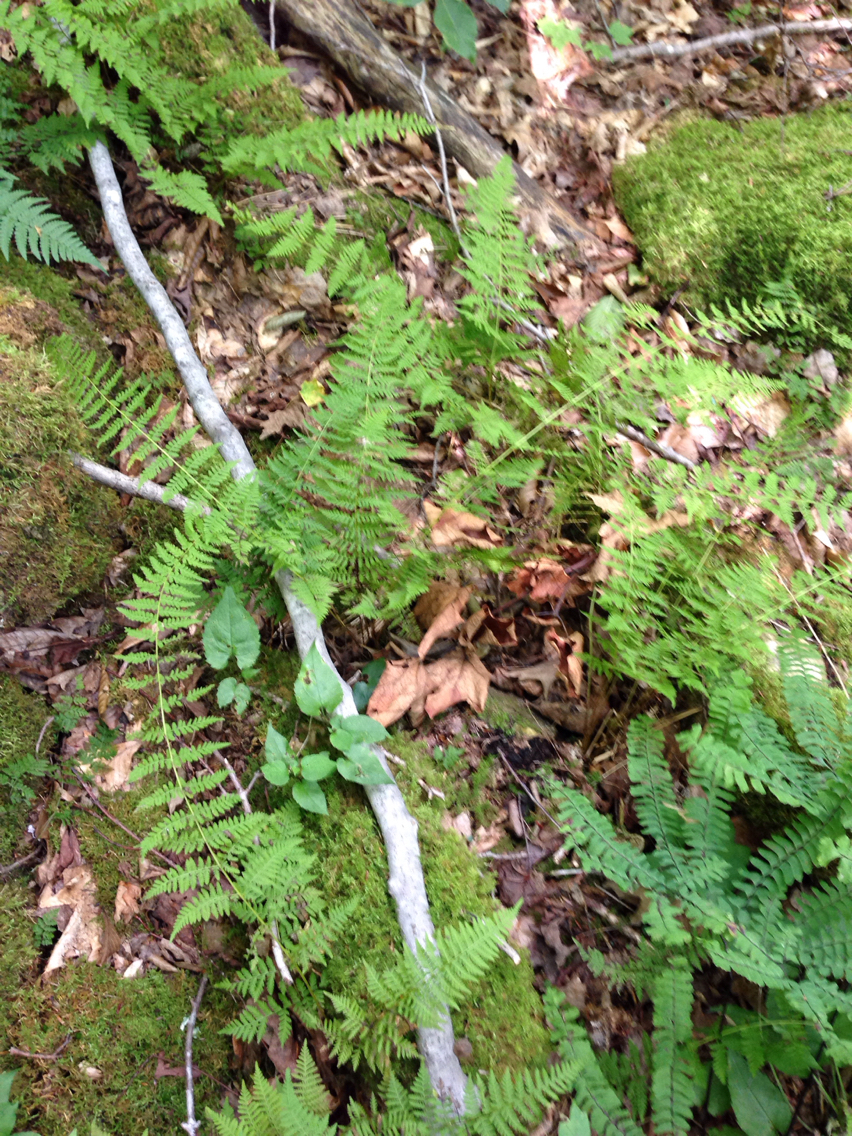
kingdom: Plantae
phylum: Tracheophyta
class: Polypodiopsida
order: Polypodiales
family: Cystopteridaceae
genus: Cystopteris
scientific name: Cystopteris bulbifera
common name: Bulblet bladder fern
